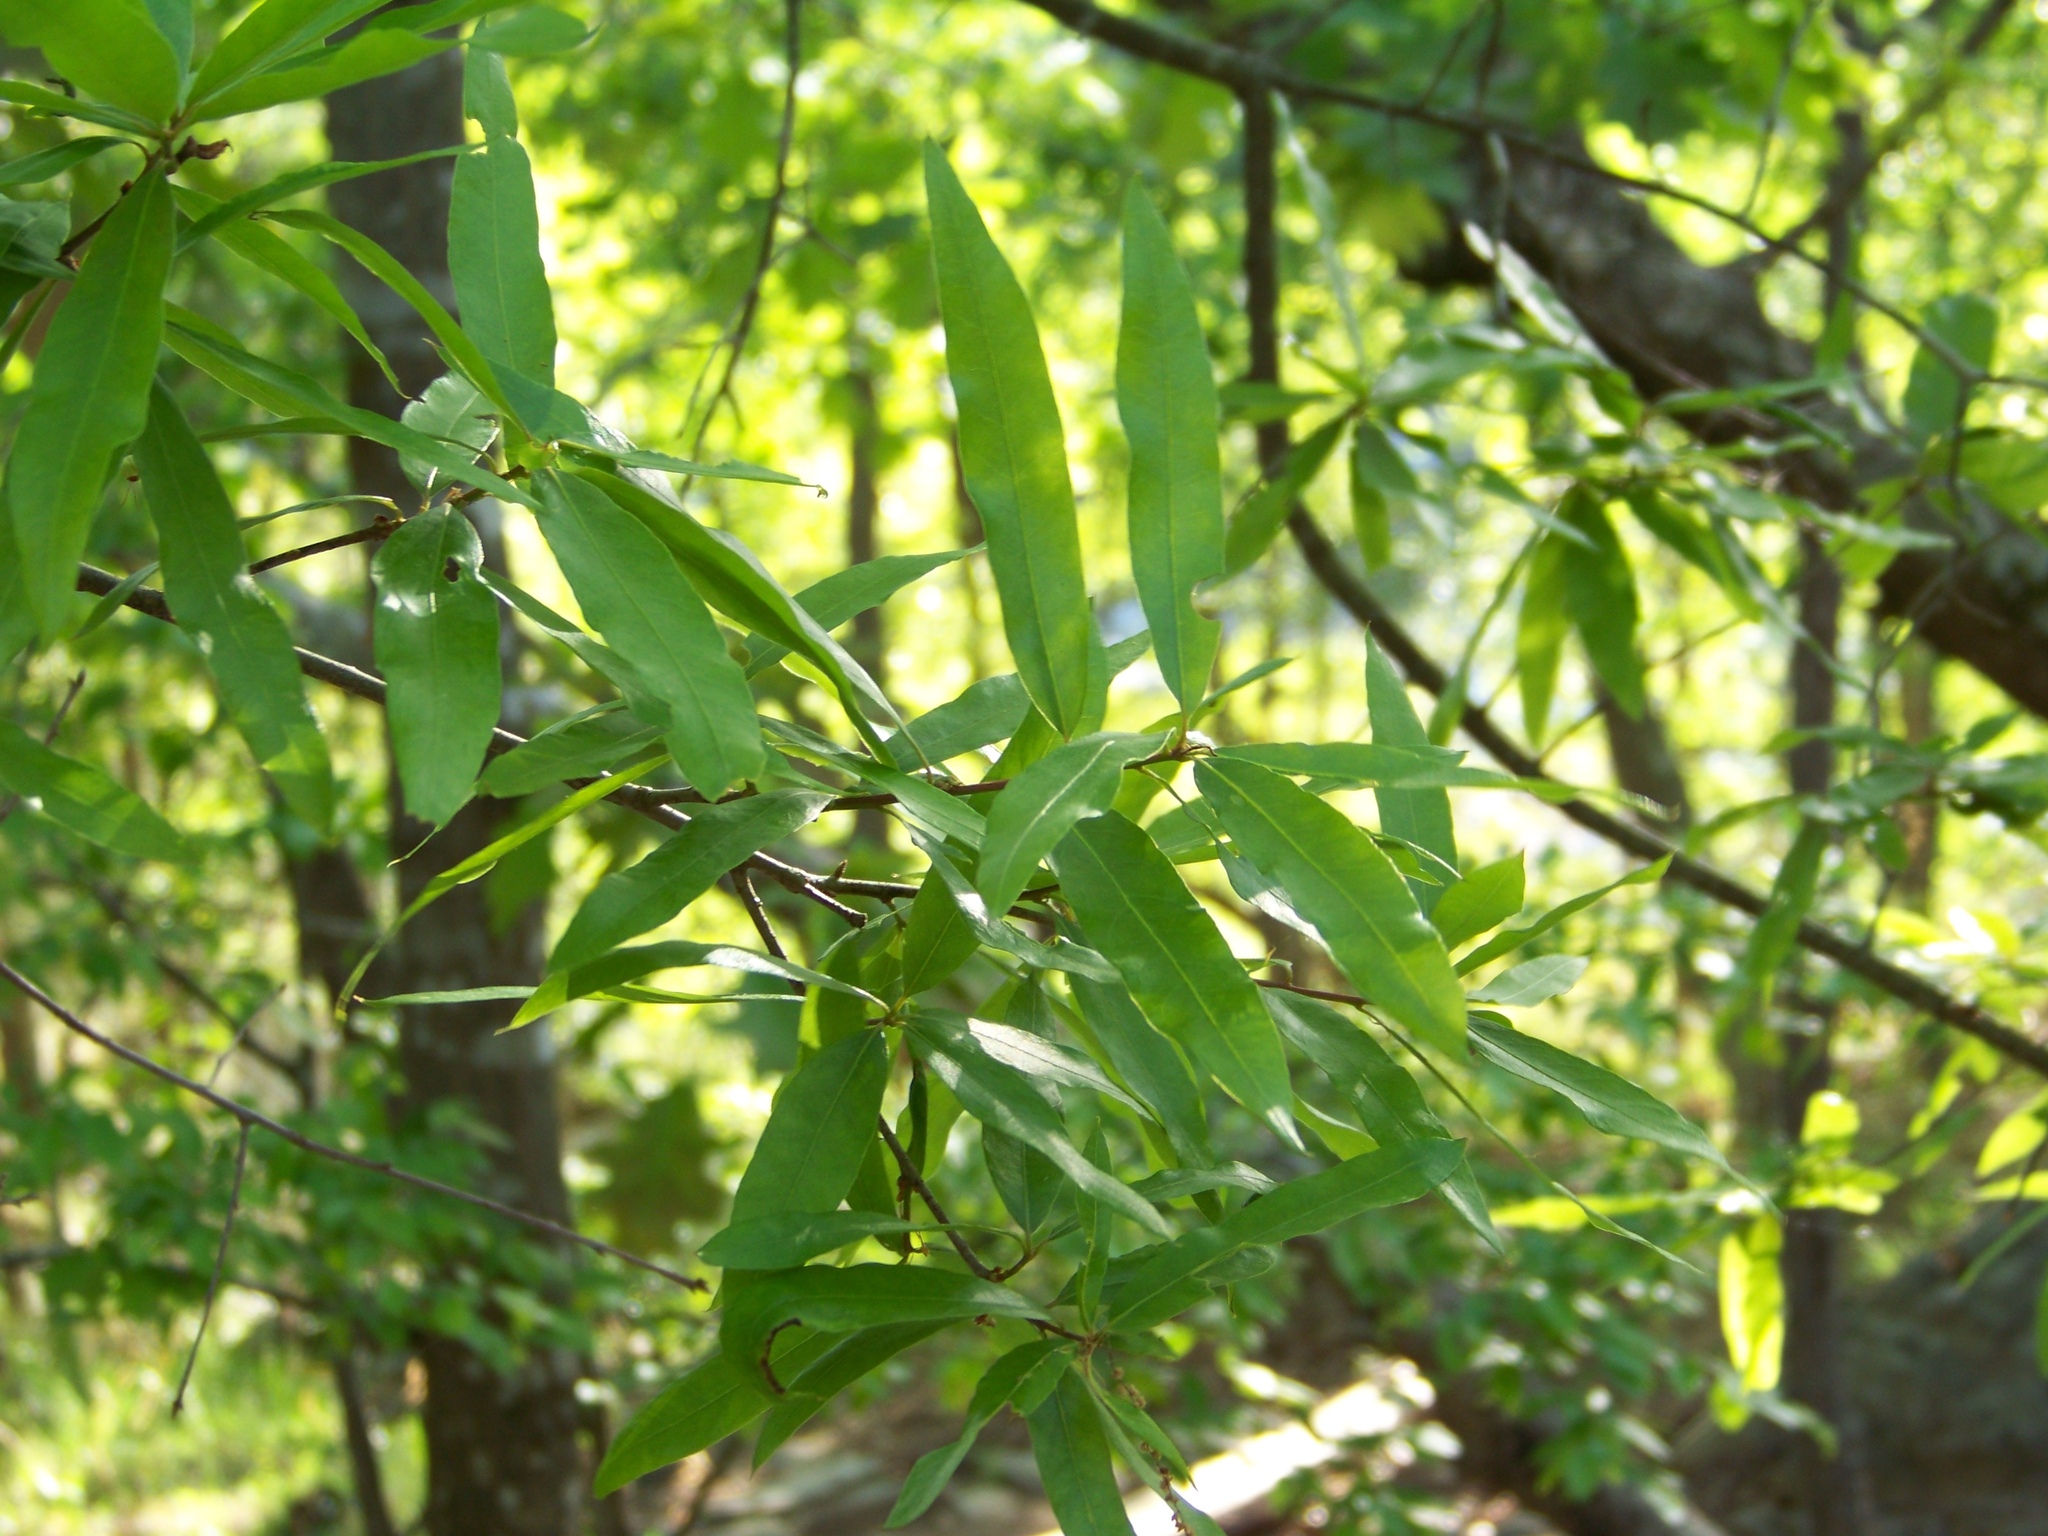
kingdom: Plantae
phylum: Tracheophyta
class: Magnoliopsida
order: Fagales
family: Fagaceae
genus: Quercus
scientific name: Quercus phellos
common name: Willow oak
